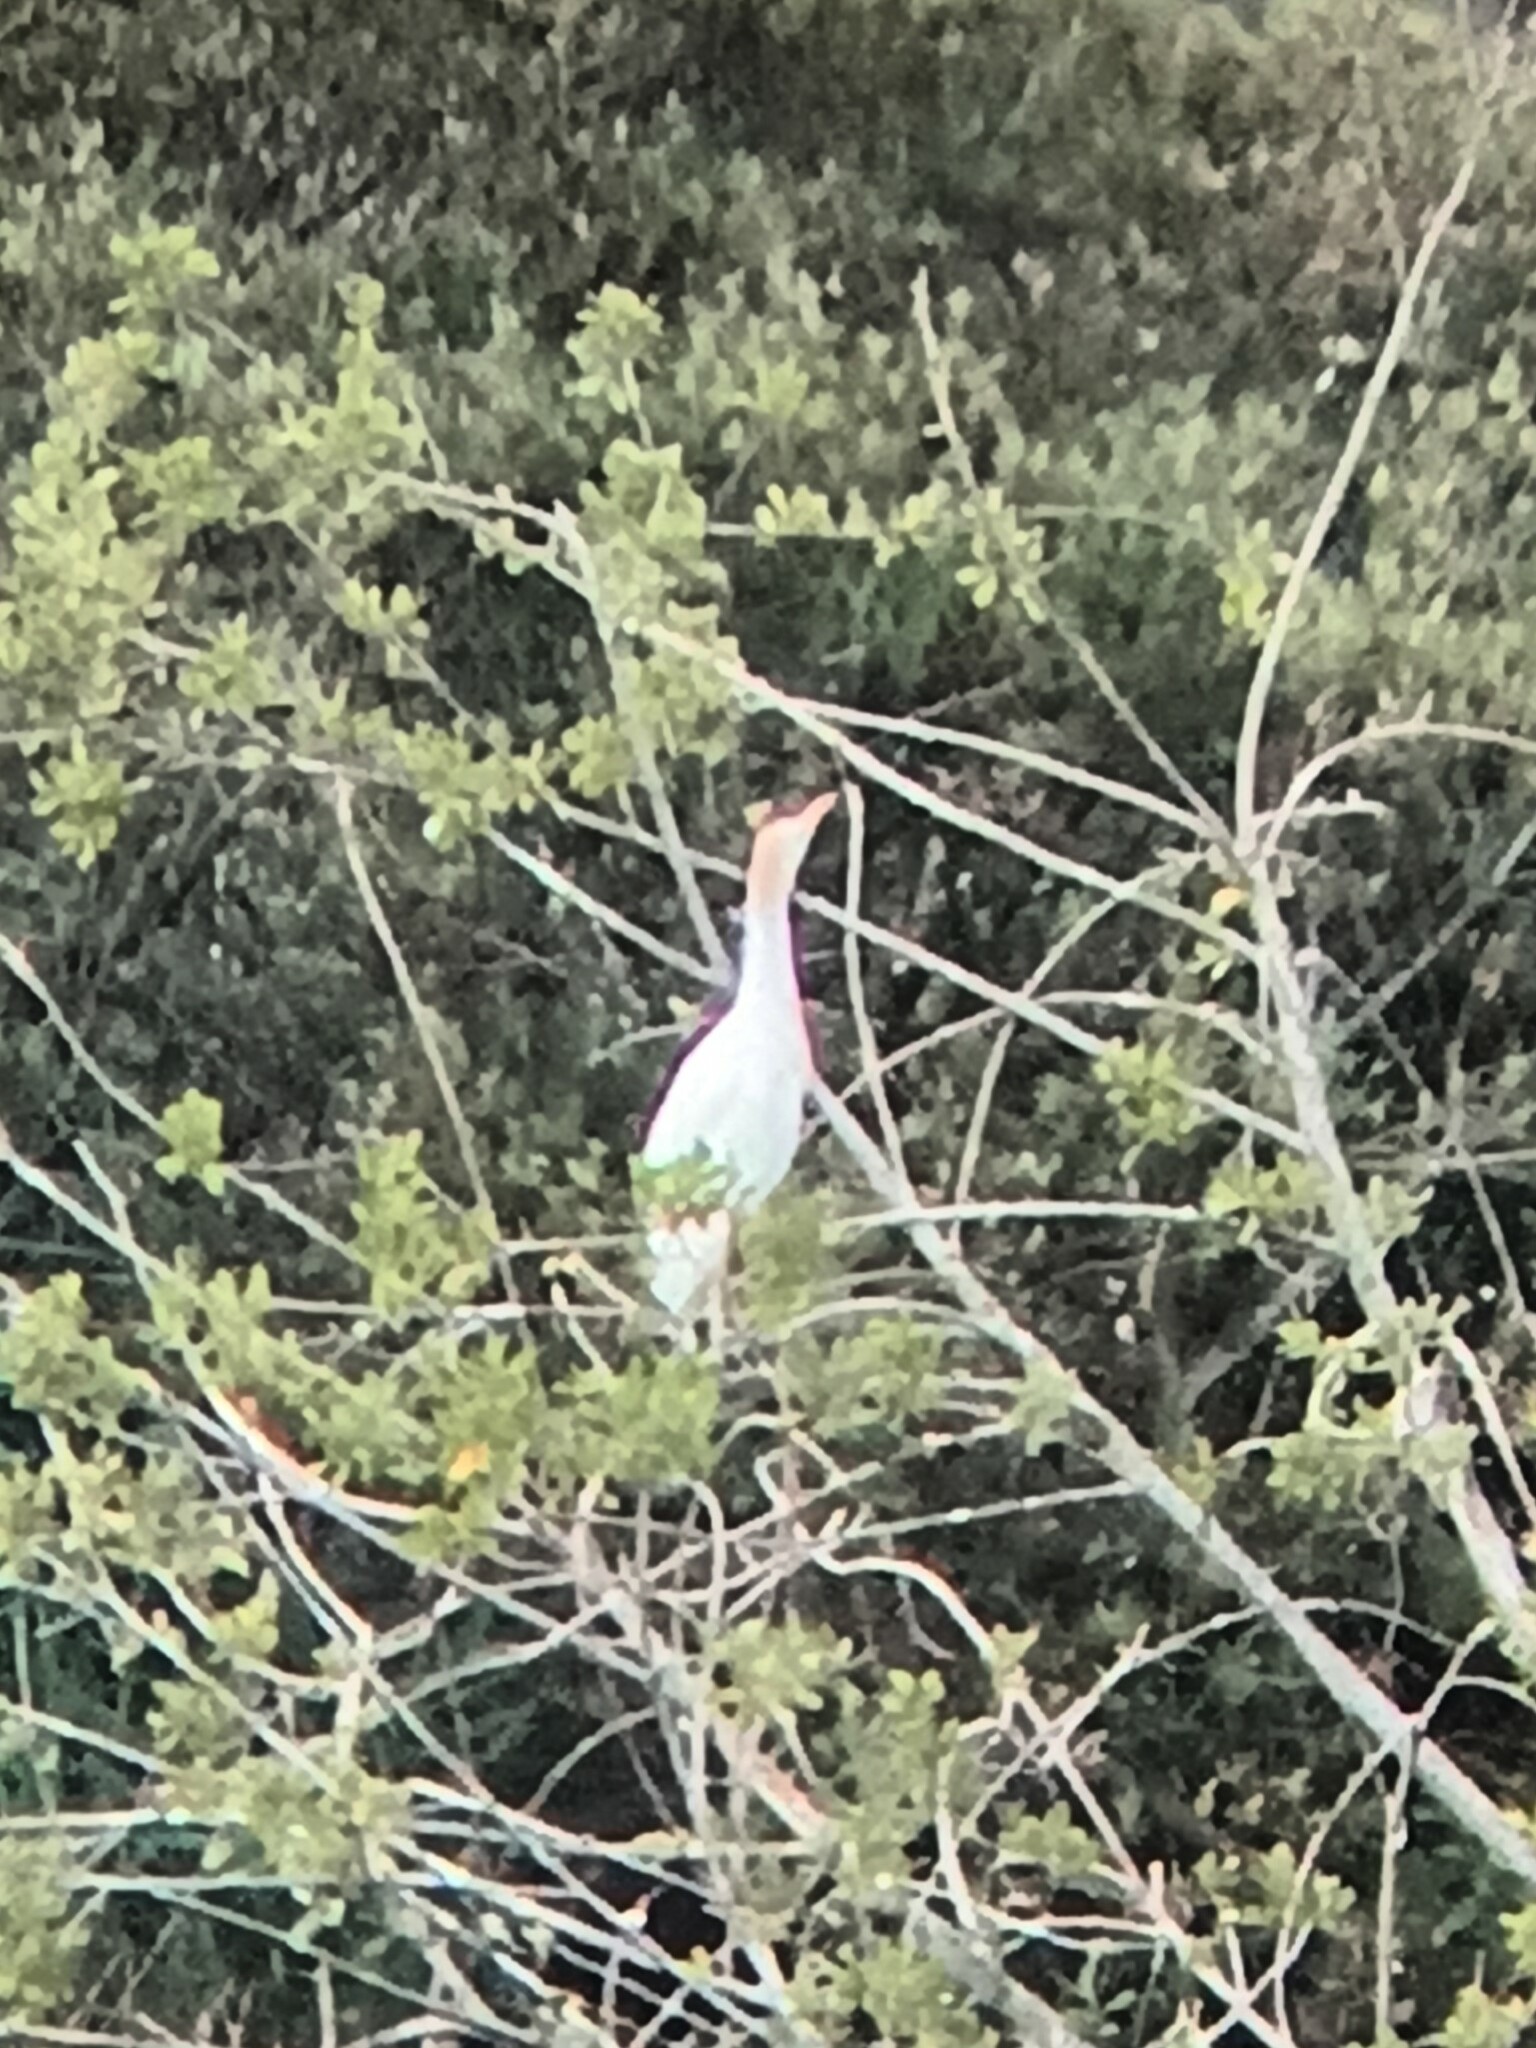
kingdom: Animalia
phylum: Chordata
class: Aves
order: Pelecaniformes
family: Ardeidae
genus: Bubulcus
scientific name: Bubulcus ibis
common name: Cattle egret
